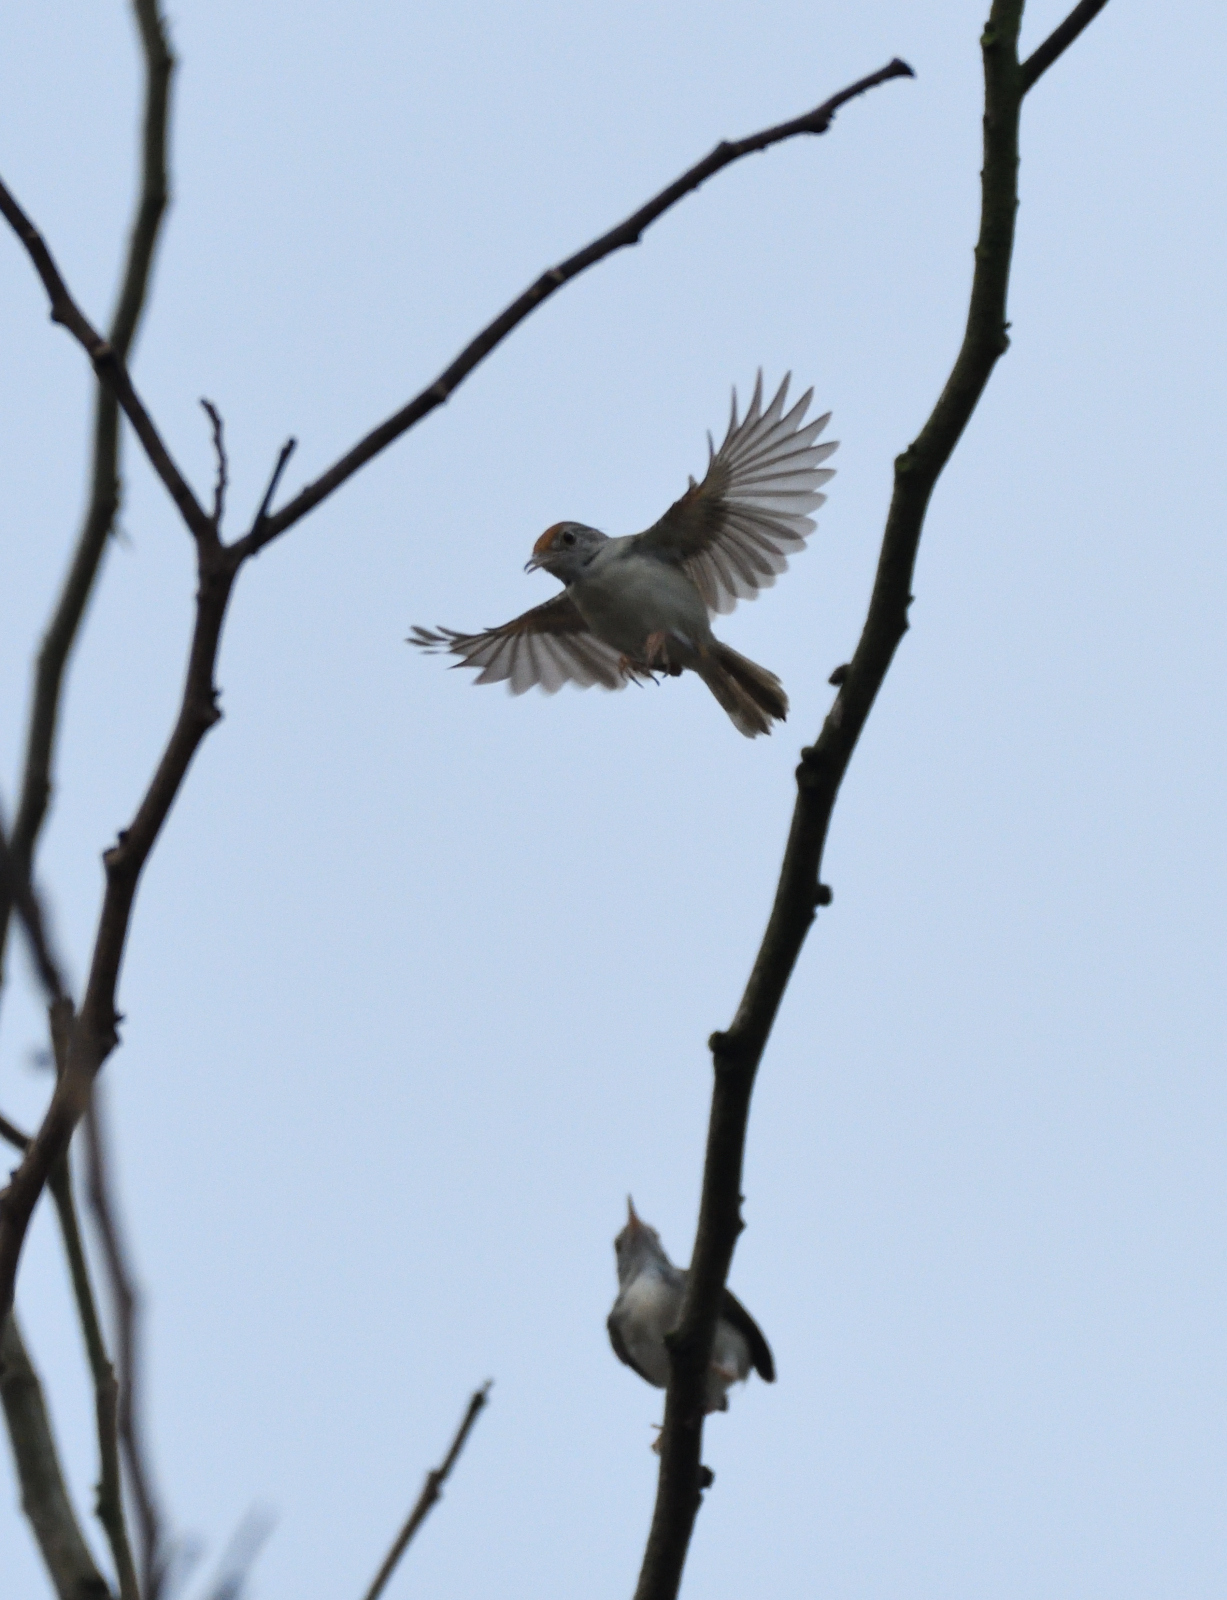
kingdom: Animalia
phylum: Chordata
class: Aves
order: Passeriformes
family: Cisticolidae
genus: Orthotomus
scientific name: Orthotomus sutorius
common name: Common tailorbird
